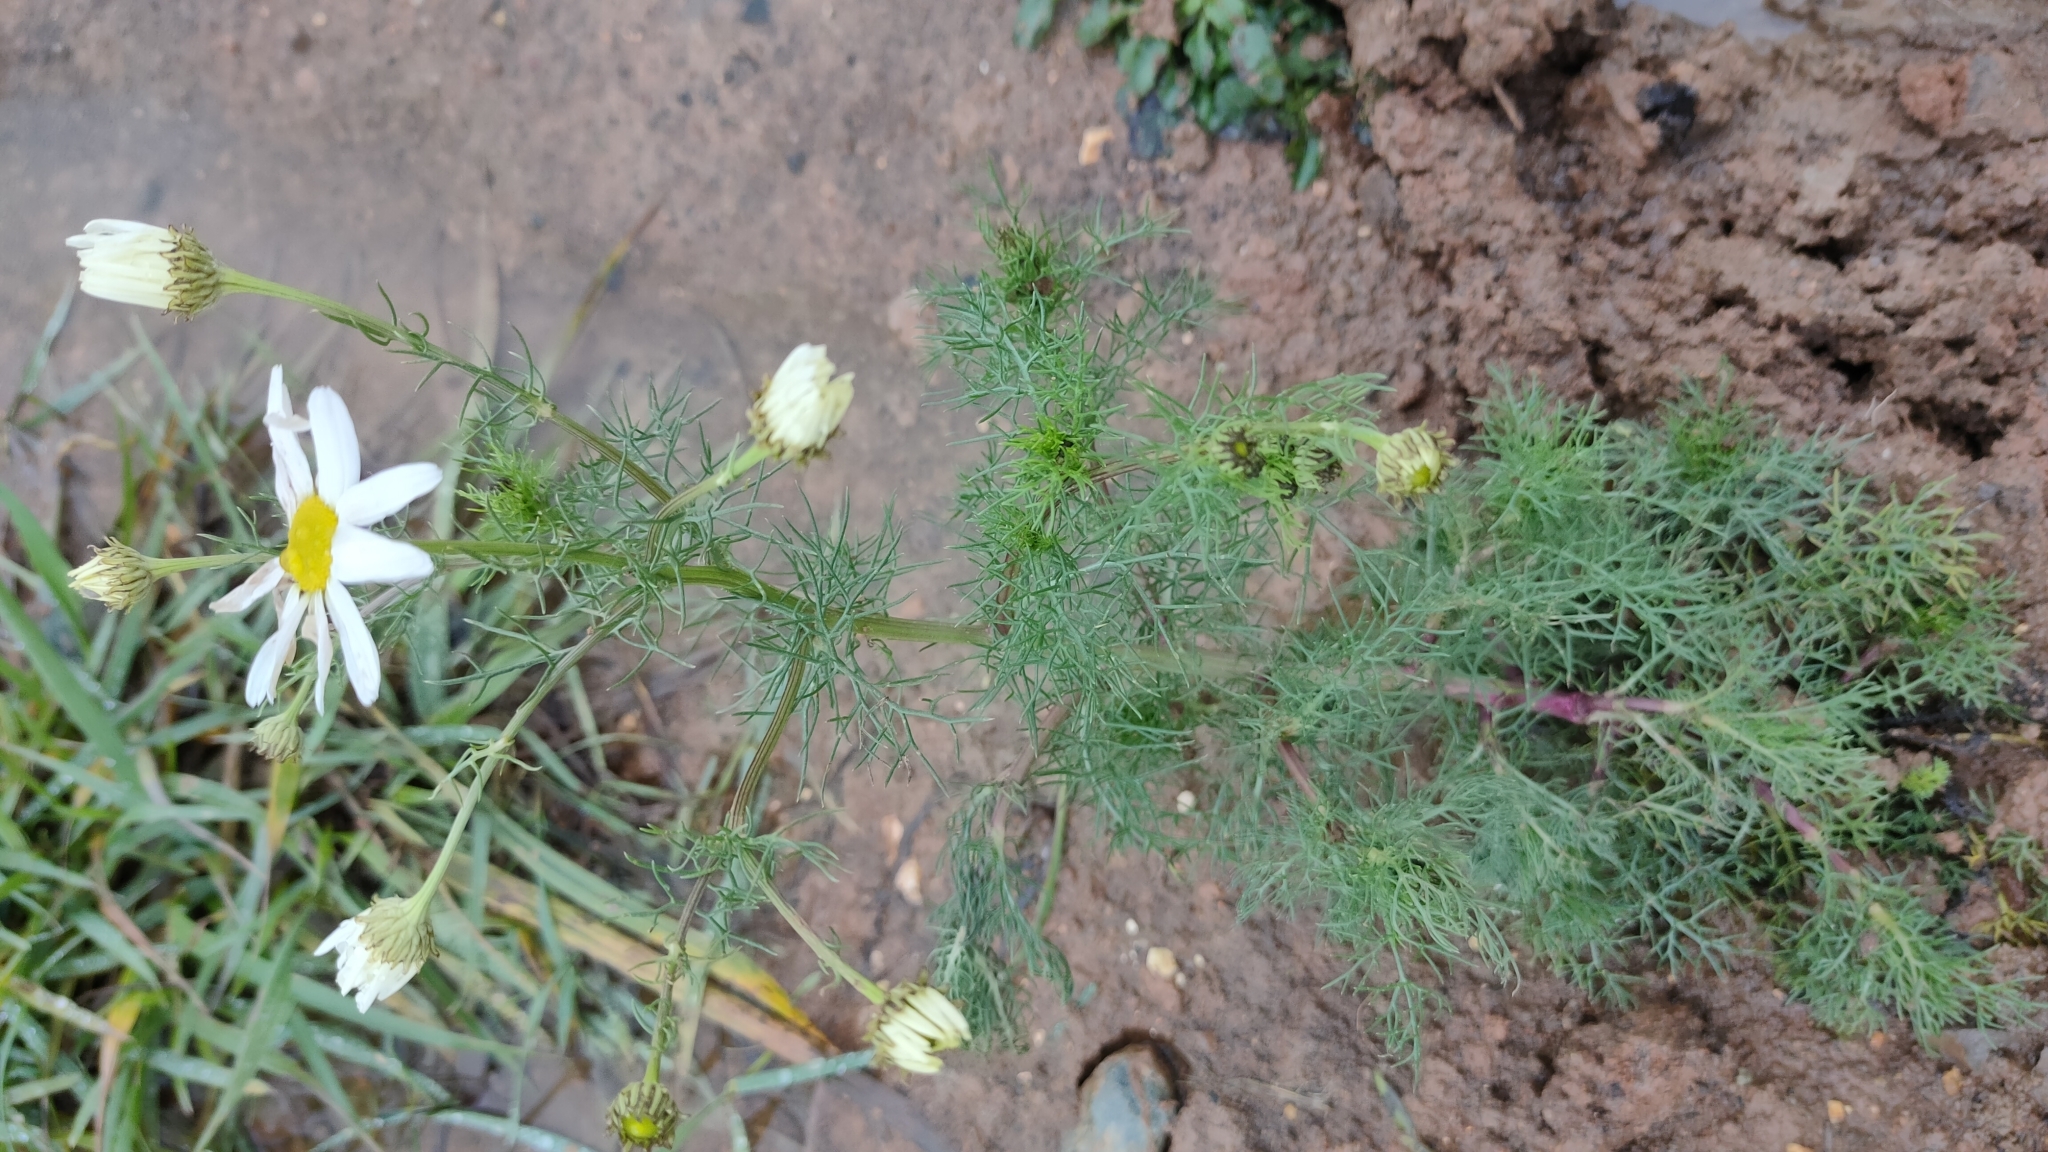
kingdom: Plantae
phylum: Tracheophyta
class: Magnoliopsida
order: Asterales
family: Asteraceae
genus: Tripleurospermum
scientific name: Tripleurospermum inodorum
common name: Scentless mayweed
